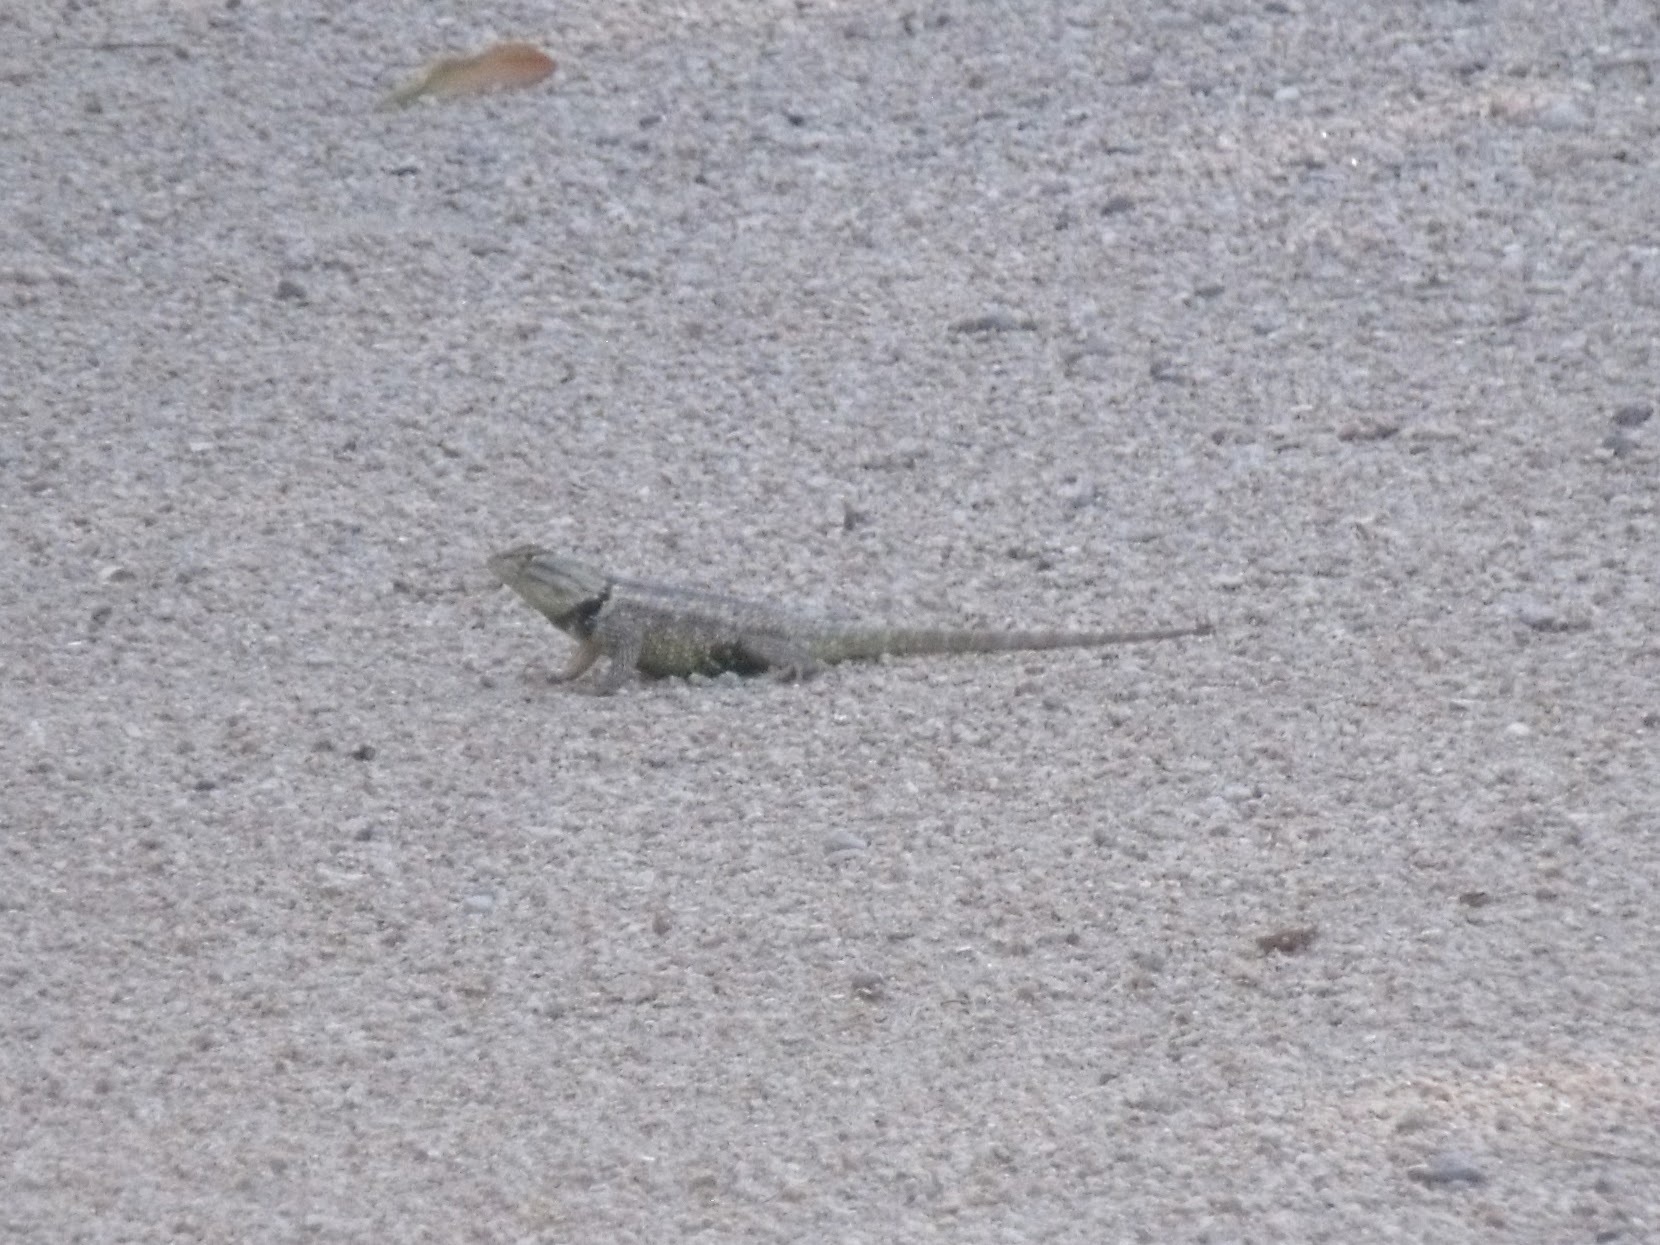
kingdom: Animalia
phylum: Chordata
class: Squamata
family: Phrynosomatidae
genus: Sceloporus
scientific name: Sceloporus magister
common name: Desert spiny lizard
